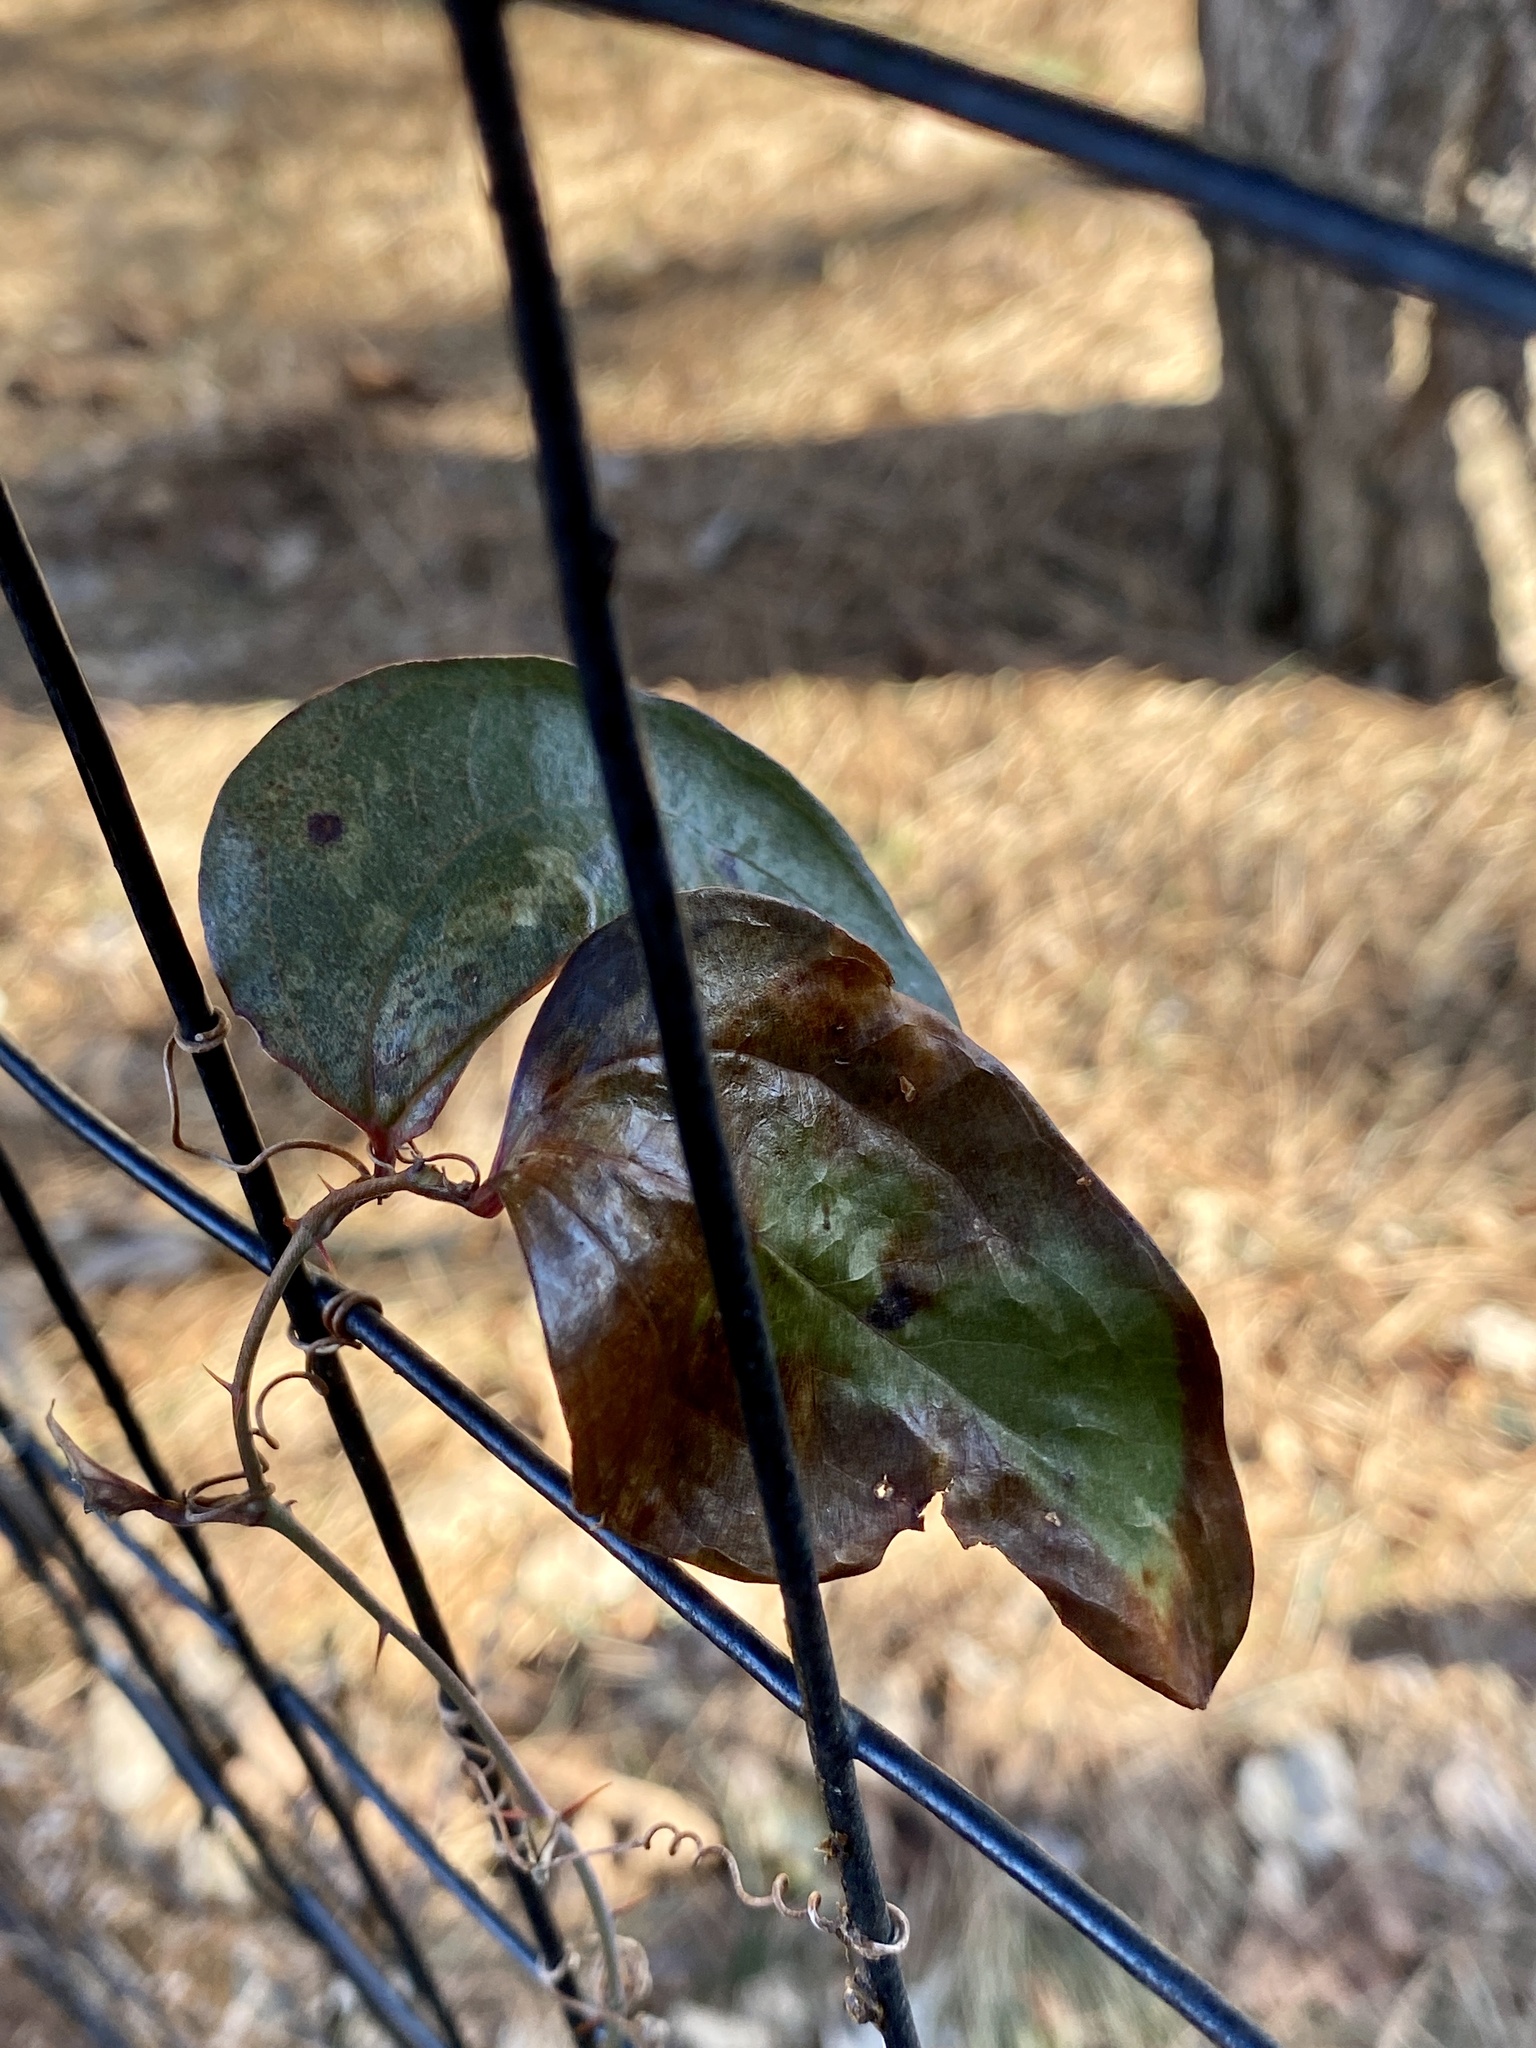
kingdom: Plantae
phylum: Tracheophyta
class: Liliopsida
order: Liliales
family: Smilacaceae
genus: Smilax
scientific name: Smilax glauca
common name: Cat greenbrier
